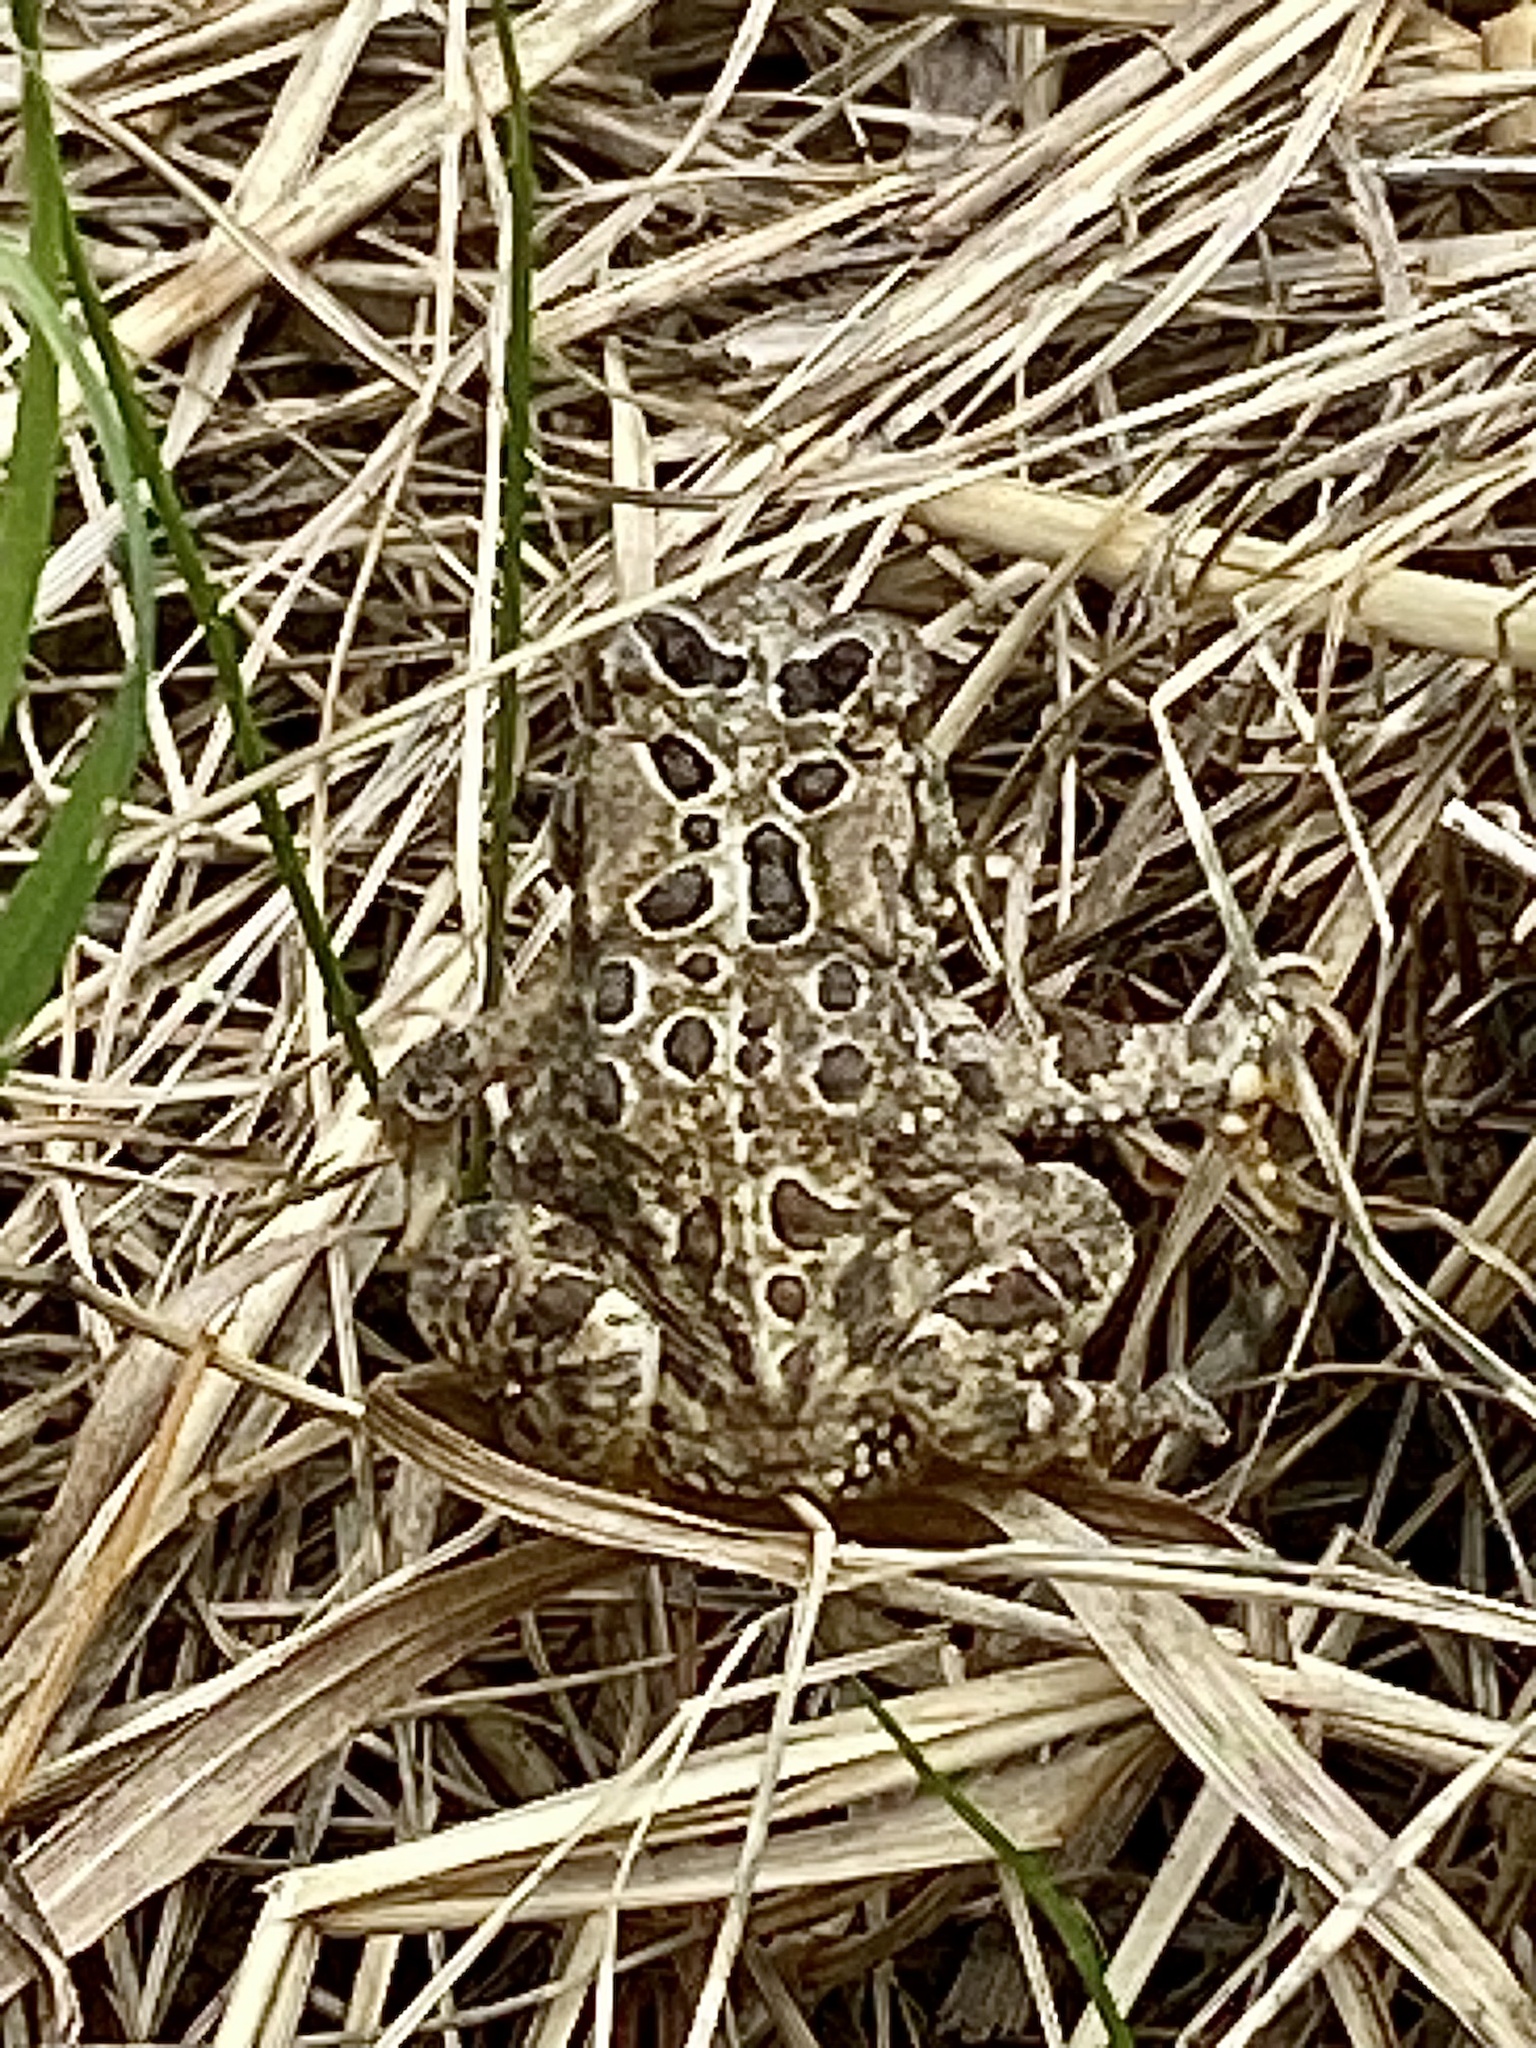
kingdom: Animalia
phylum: Chordata
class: Amphibia
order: Anura
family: Bufonidae
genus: Anaxyrus
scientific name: Anaxyrus americanus
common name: American toad
